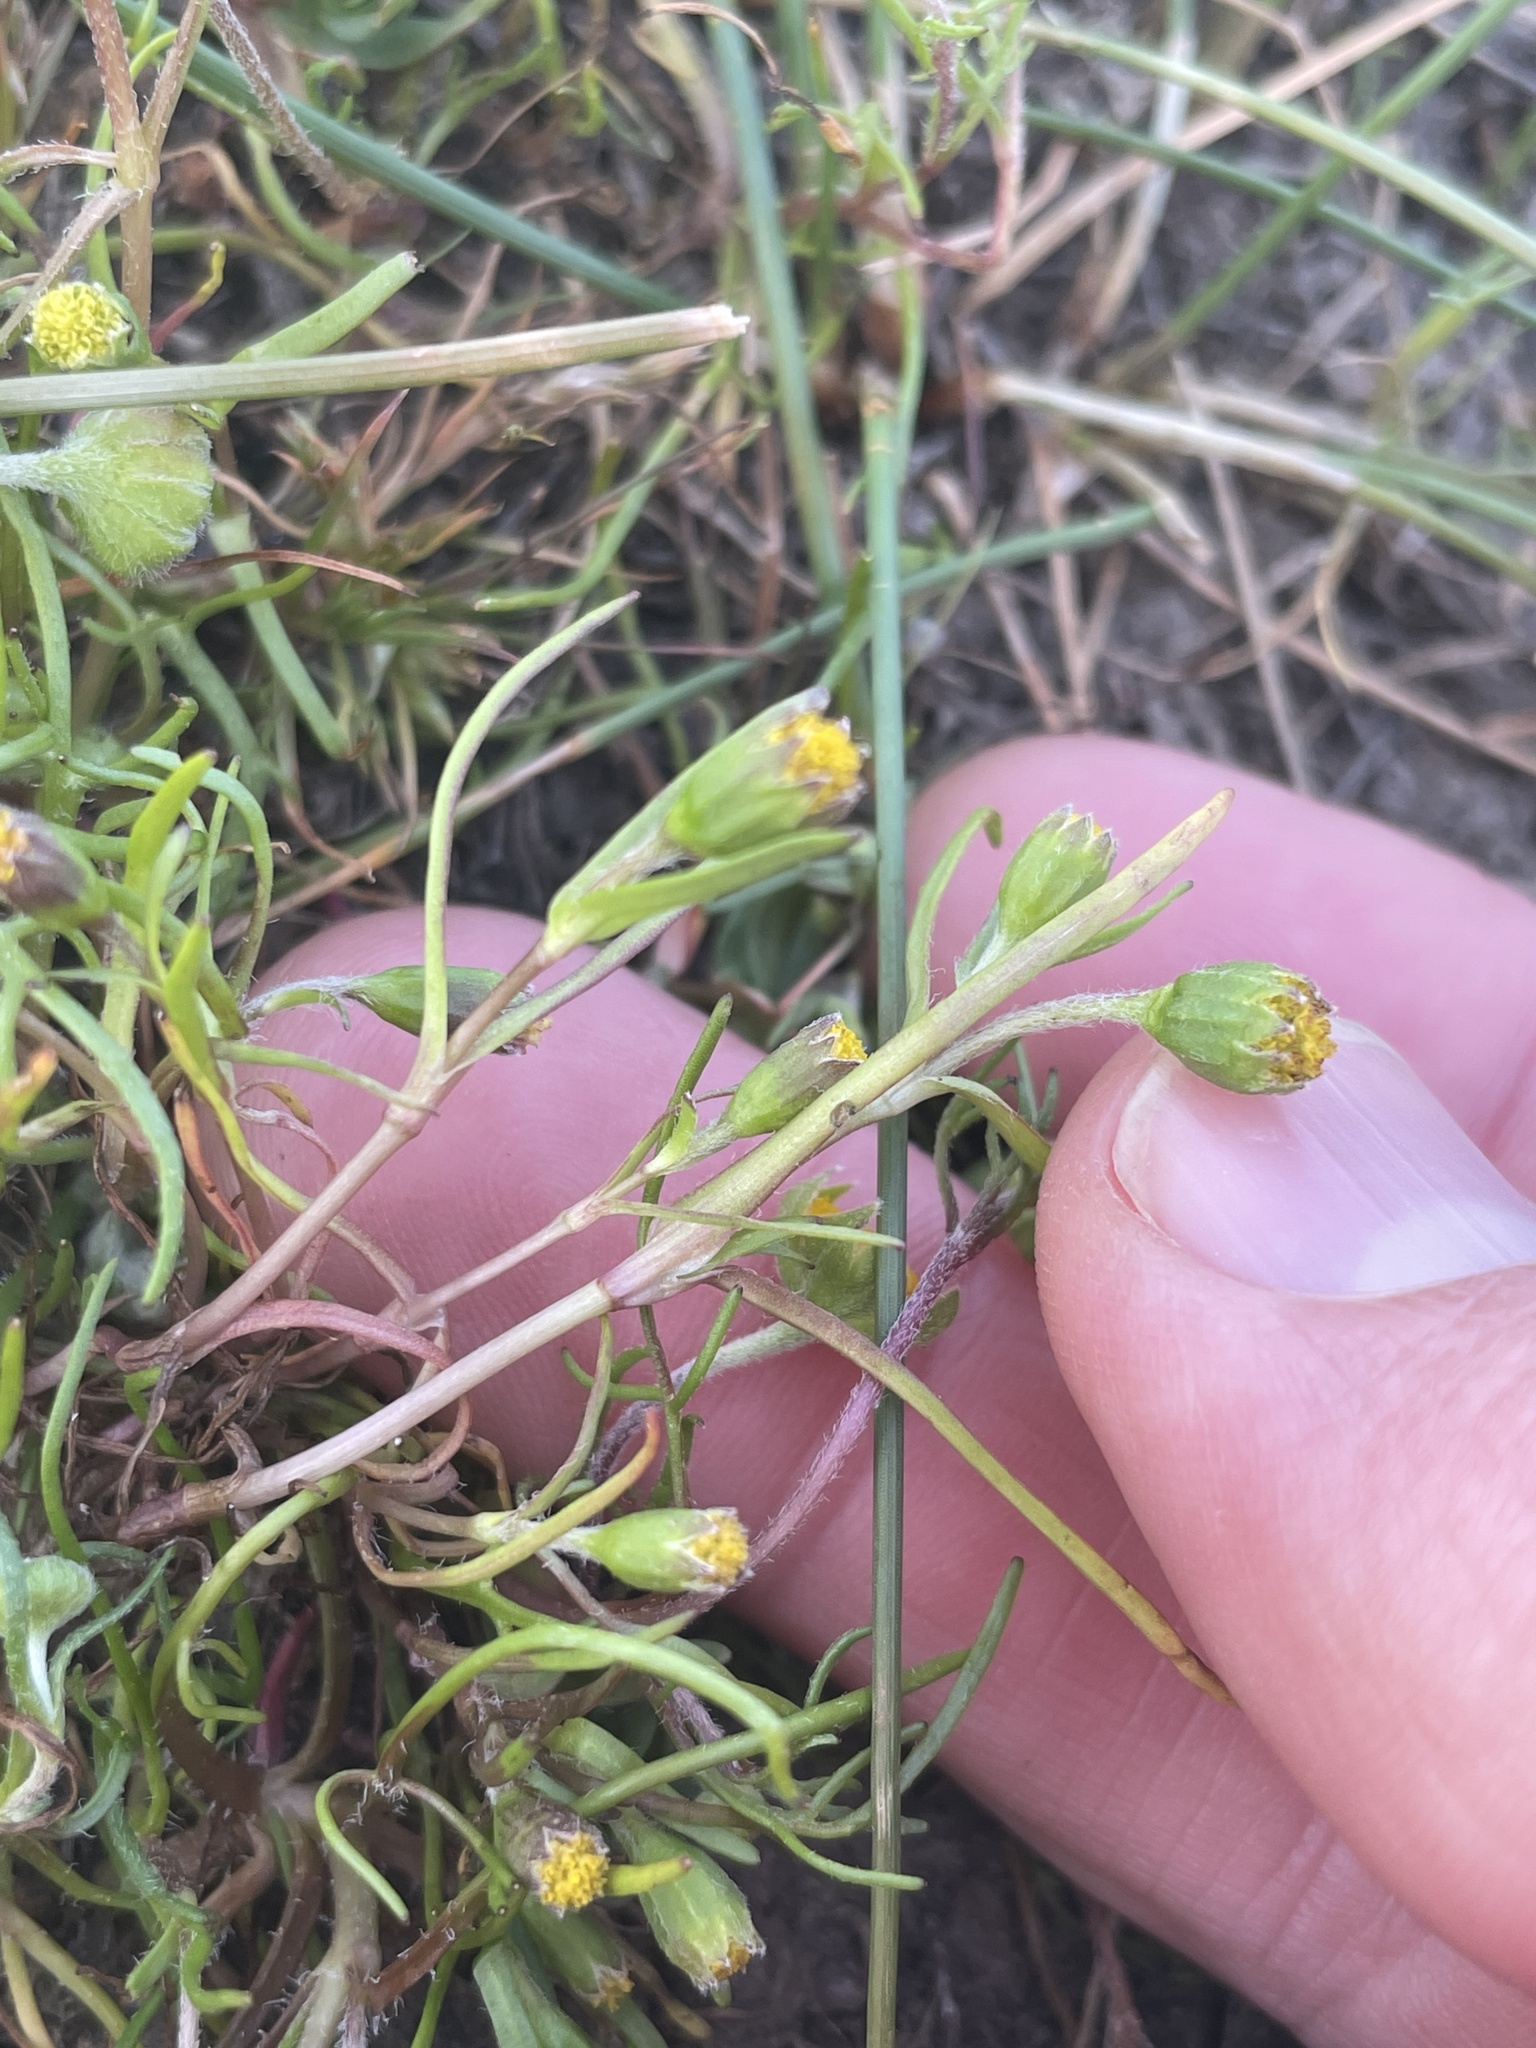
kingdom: Plantae
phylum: Tracheophyta
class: Magnoliopsida
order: Asterales
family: Asteraceae
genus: Lasthenia
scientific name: Lasthenia glaberrima
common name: Smooth goldfields
